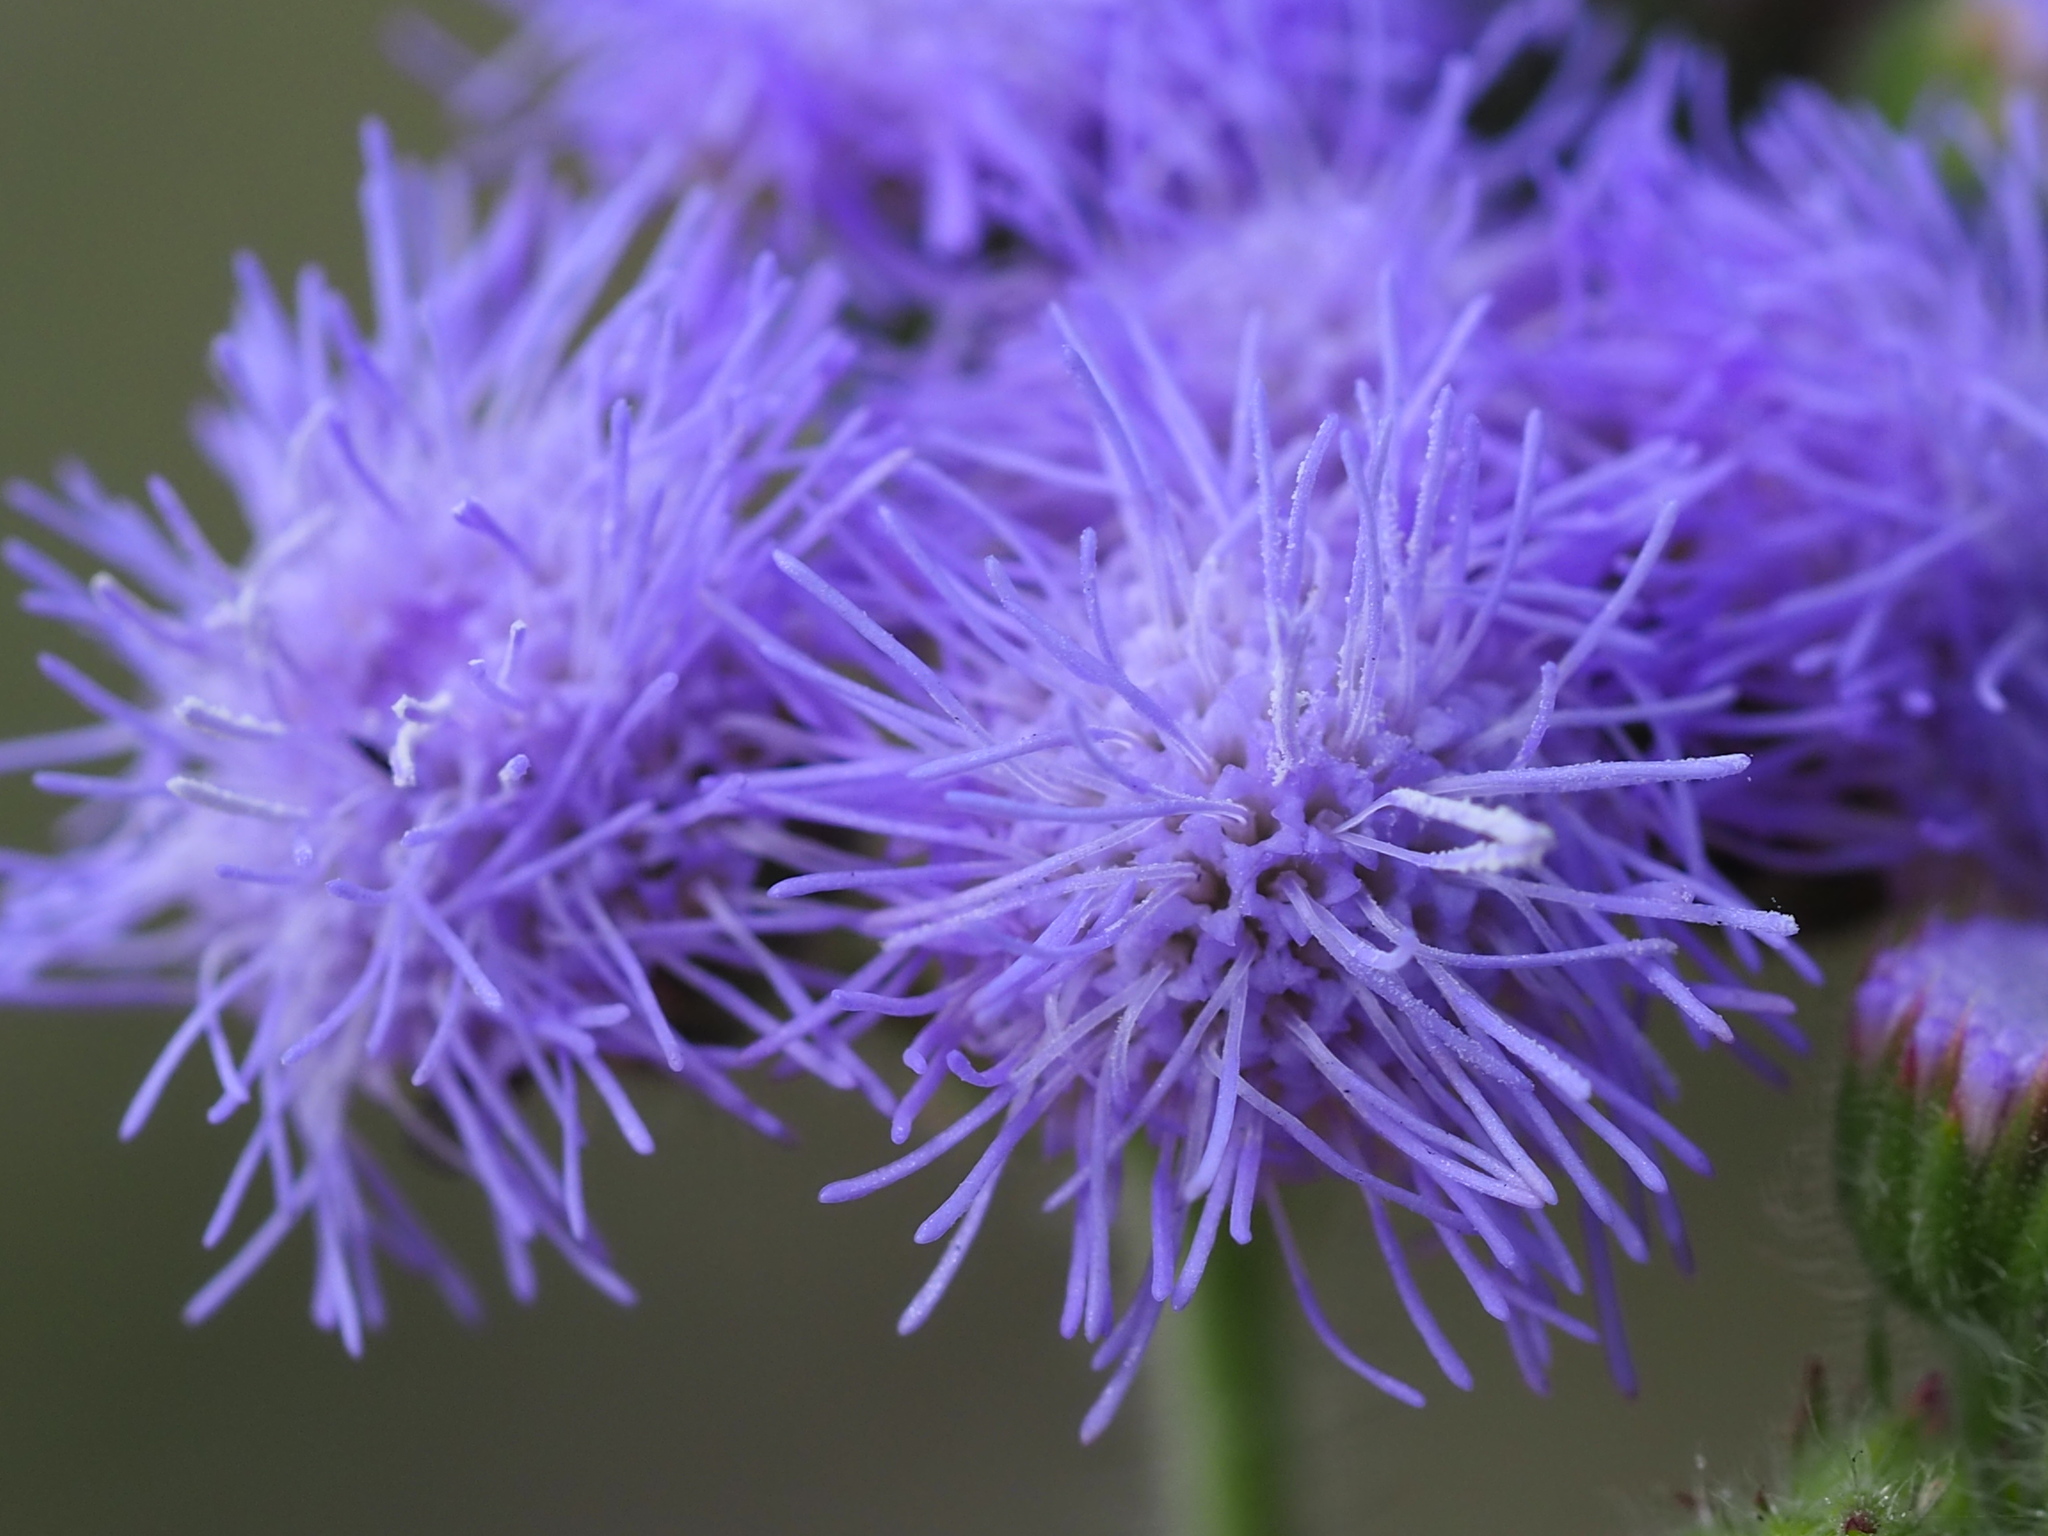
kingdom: Plantae
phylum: Tracheophyta
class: Magnoliopsida
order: Asterales
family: Asteraceae
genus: Ageratum
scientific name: Ageratum houstonianum
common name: Bluemink
